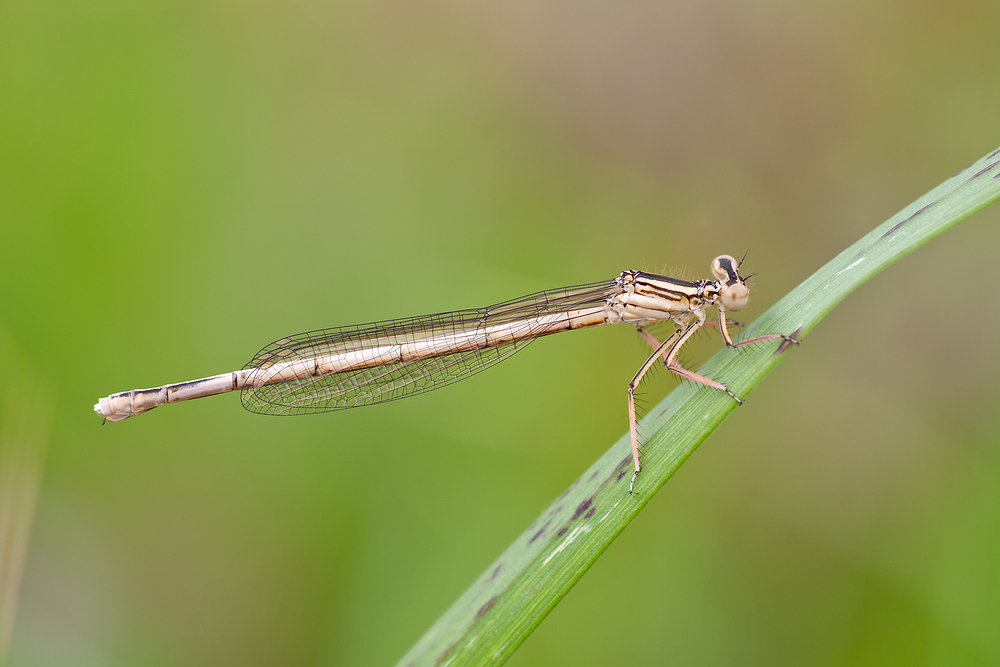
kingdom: Animalia
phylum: Arthropoda
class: Insecta
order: Odonata
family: Platycnemididae
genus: Platycnemis
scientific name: Platycnemis latipes
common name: White featherleg
